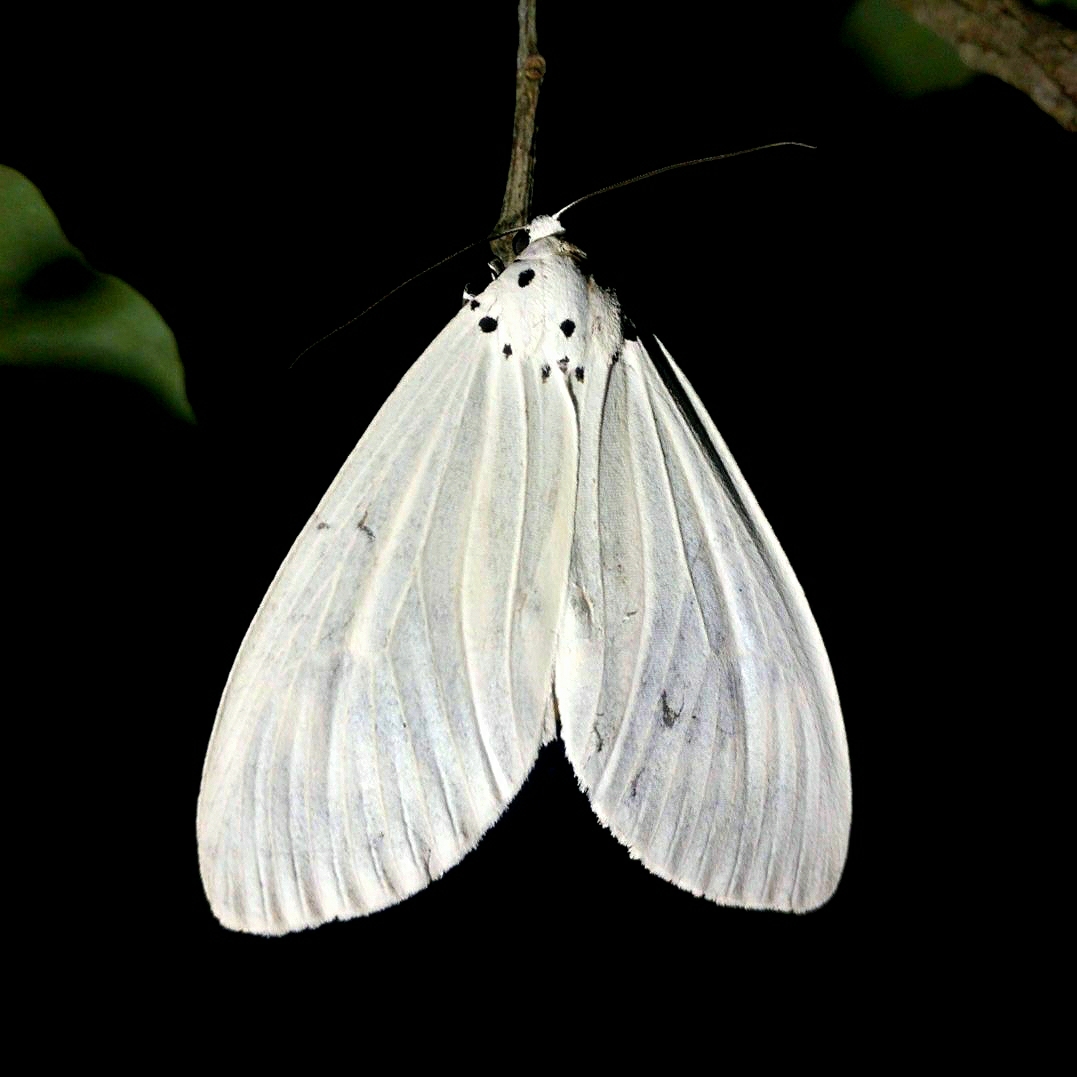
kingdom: Animalia
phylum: Arthropoda
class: Insecta
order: Lepidoptera
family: Erebidae
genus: Neochera
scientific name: Neochera dominia
